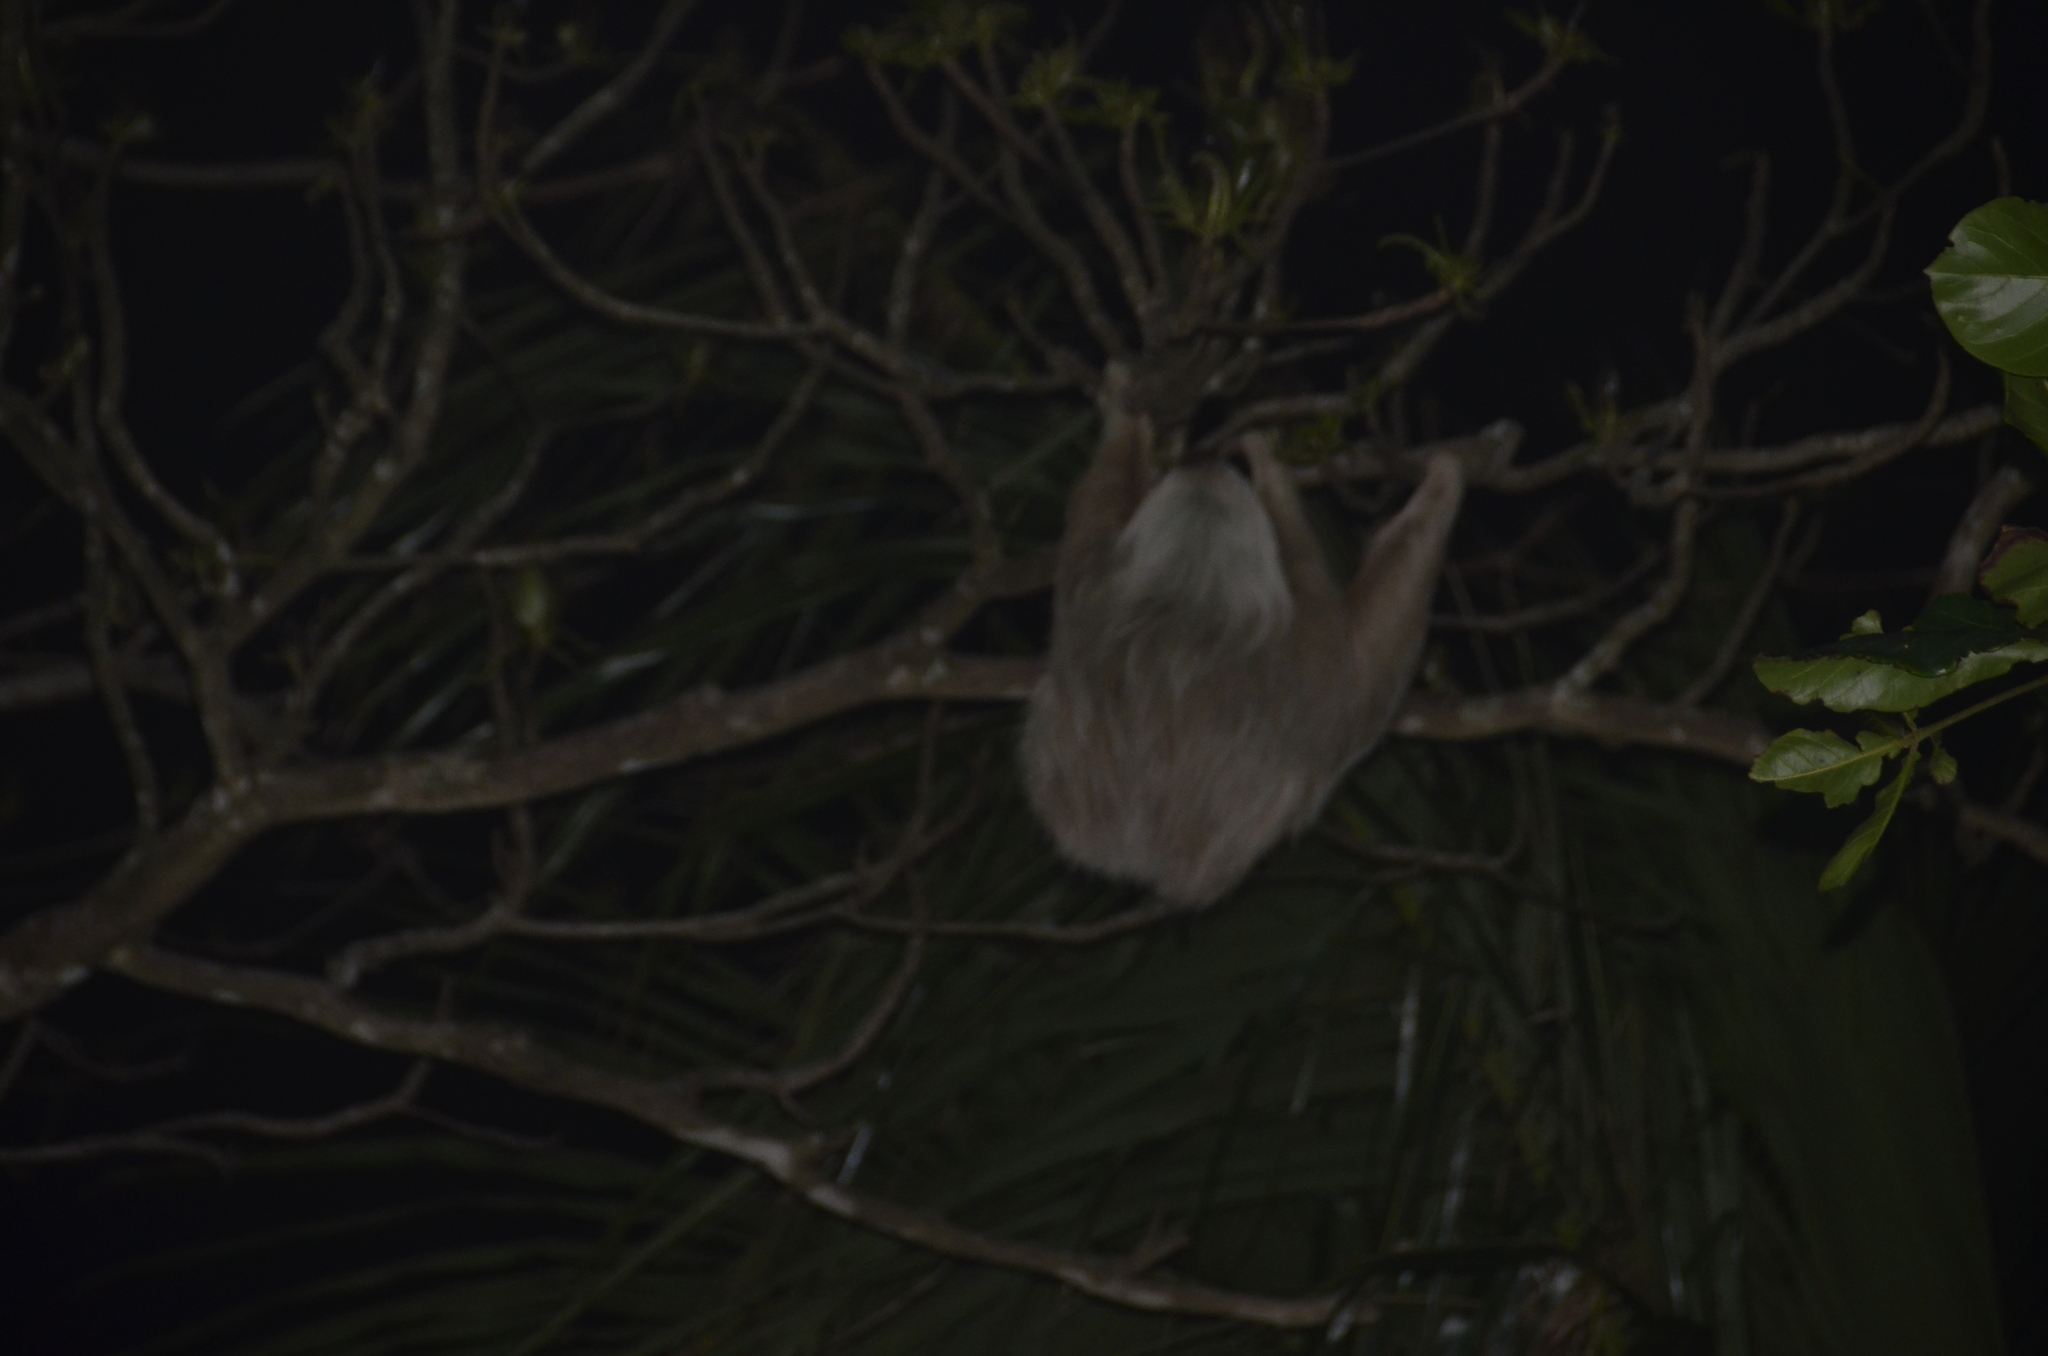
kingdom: Animalia
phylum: Chordata
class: Mammalia
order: Pilosa
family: Megalonychidae
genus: Choloepus
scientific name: Choloepus hoffmanni
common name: Hoffmann's two-toed sloth
